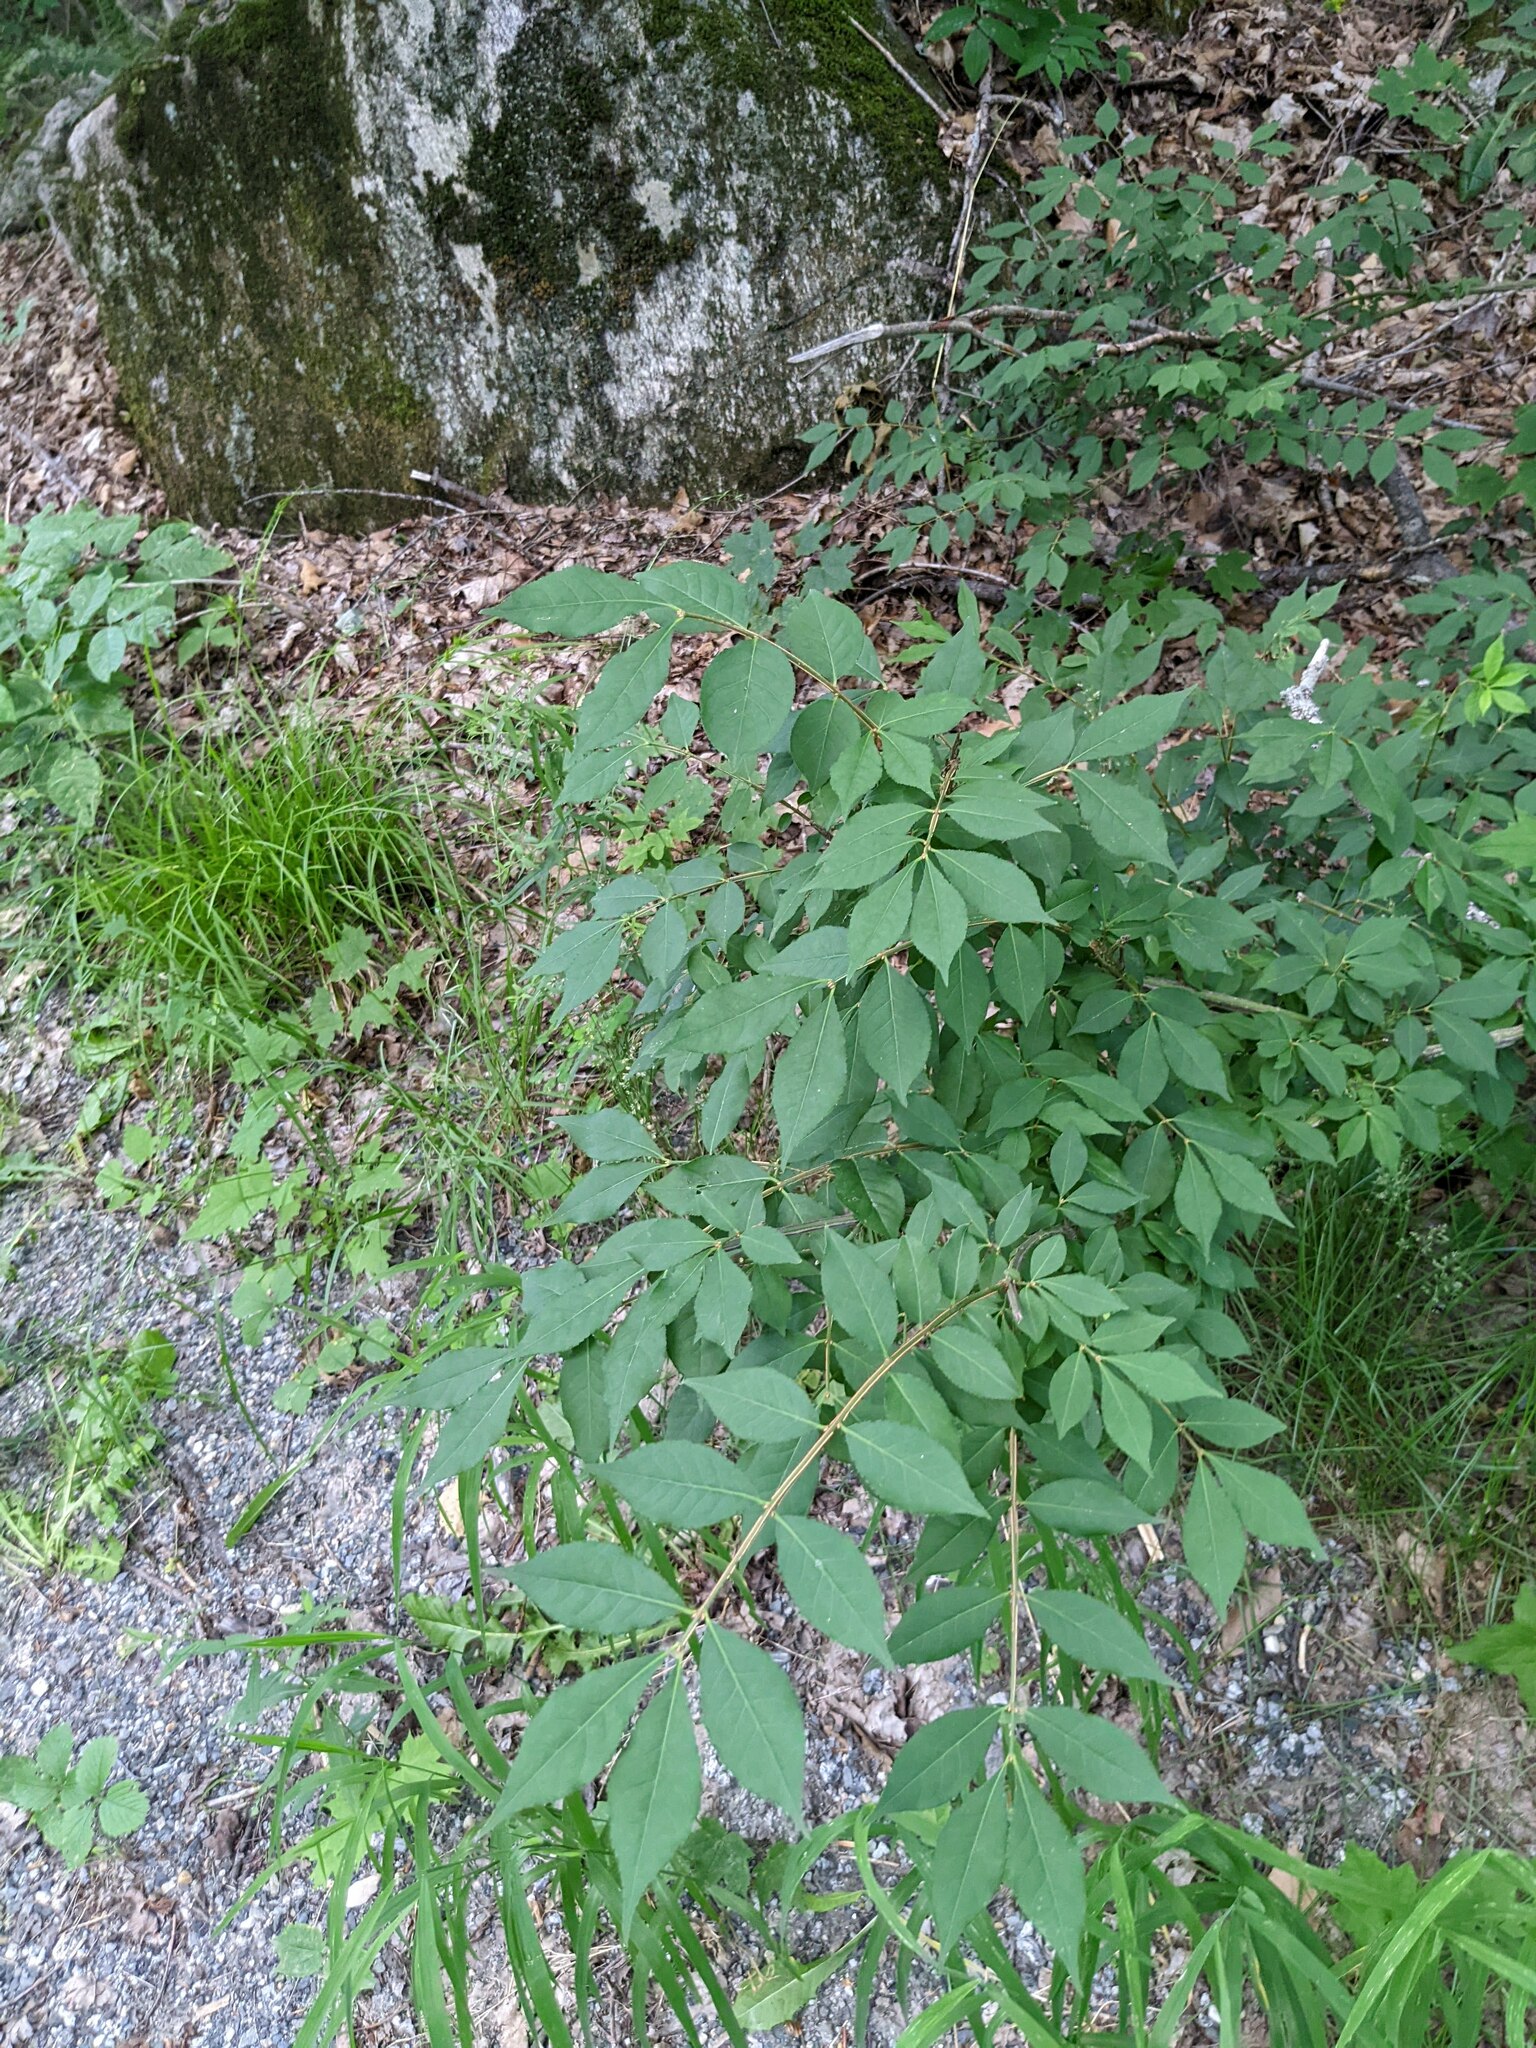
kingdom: Plantae
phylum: Tracheophyta
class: Magnoliopsida
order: Celastrales
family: Celastraceae
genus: Euonymus
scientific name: Euonymus alatus
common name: Winged euonymus
